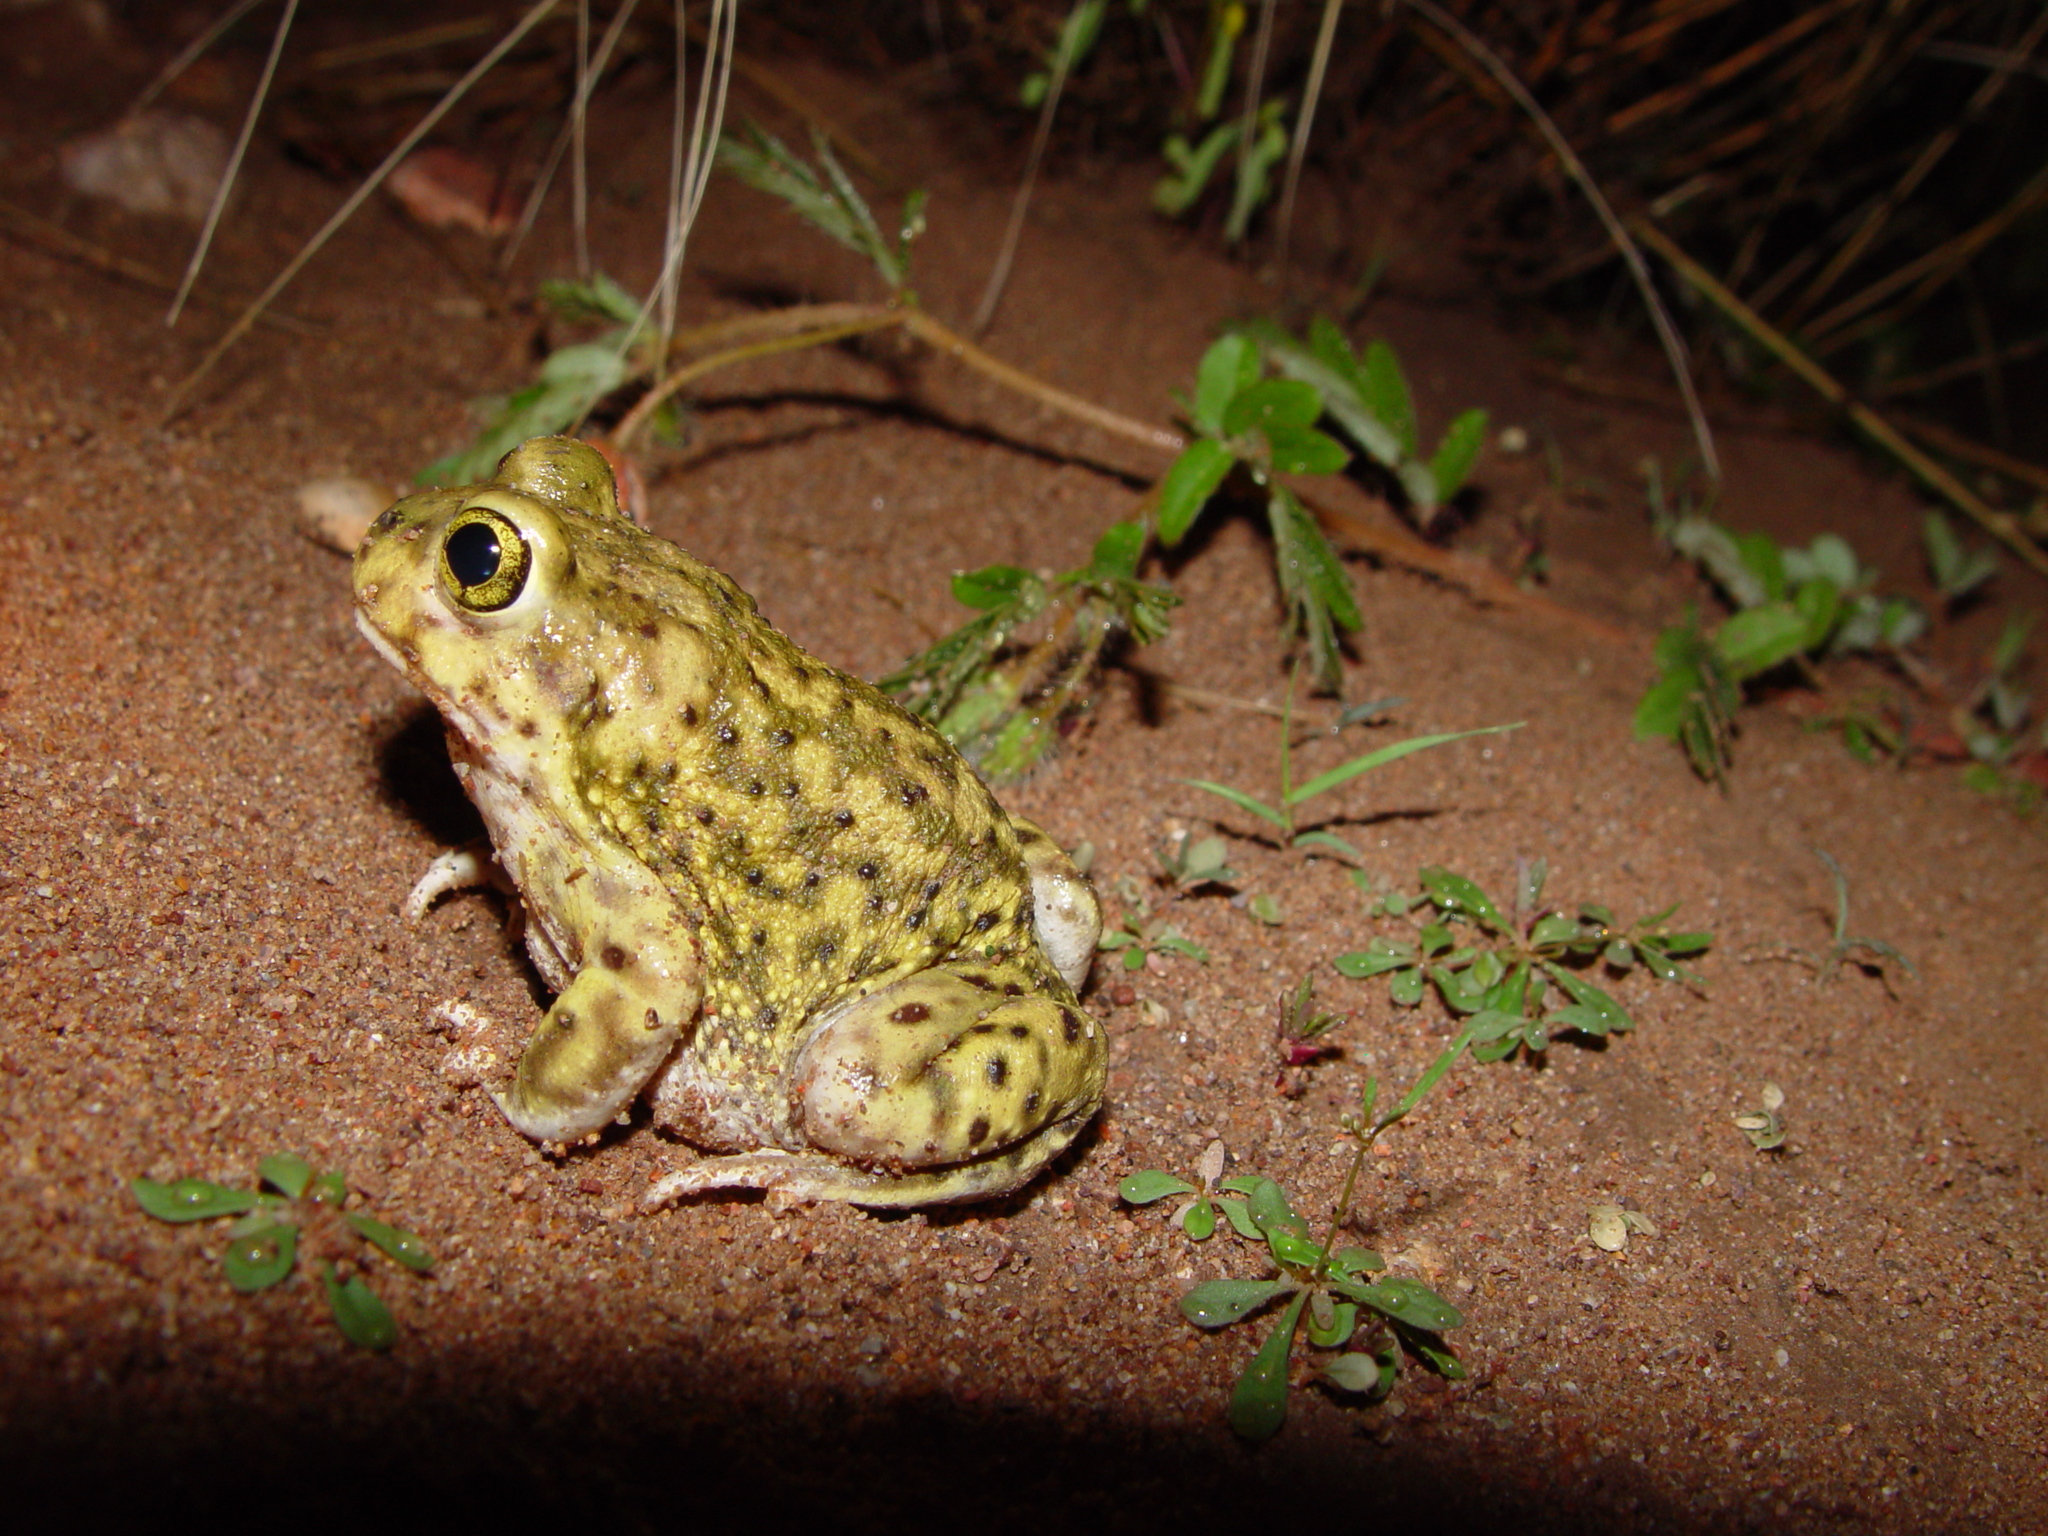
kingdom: Animalia
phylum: Chordata
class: Amphibia
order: Anura
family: Scaphiopodidae
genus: Scaphiopus
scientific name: Scaphiopus couchii
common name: Couch's spadefoot toad
